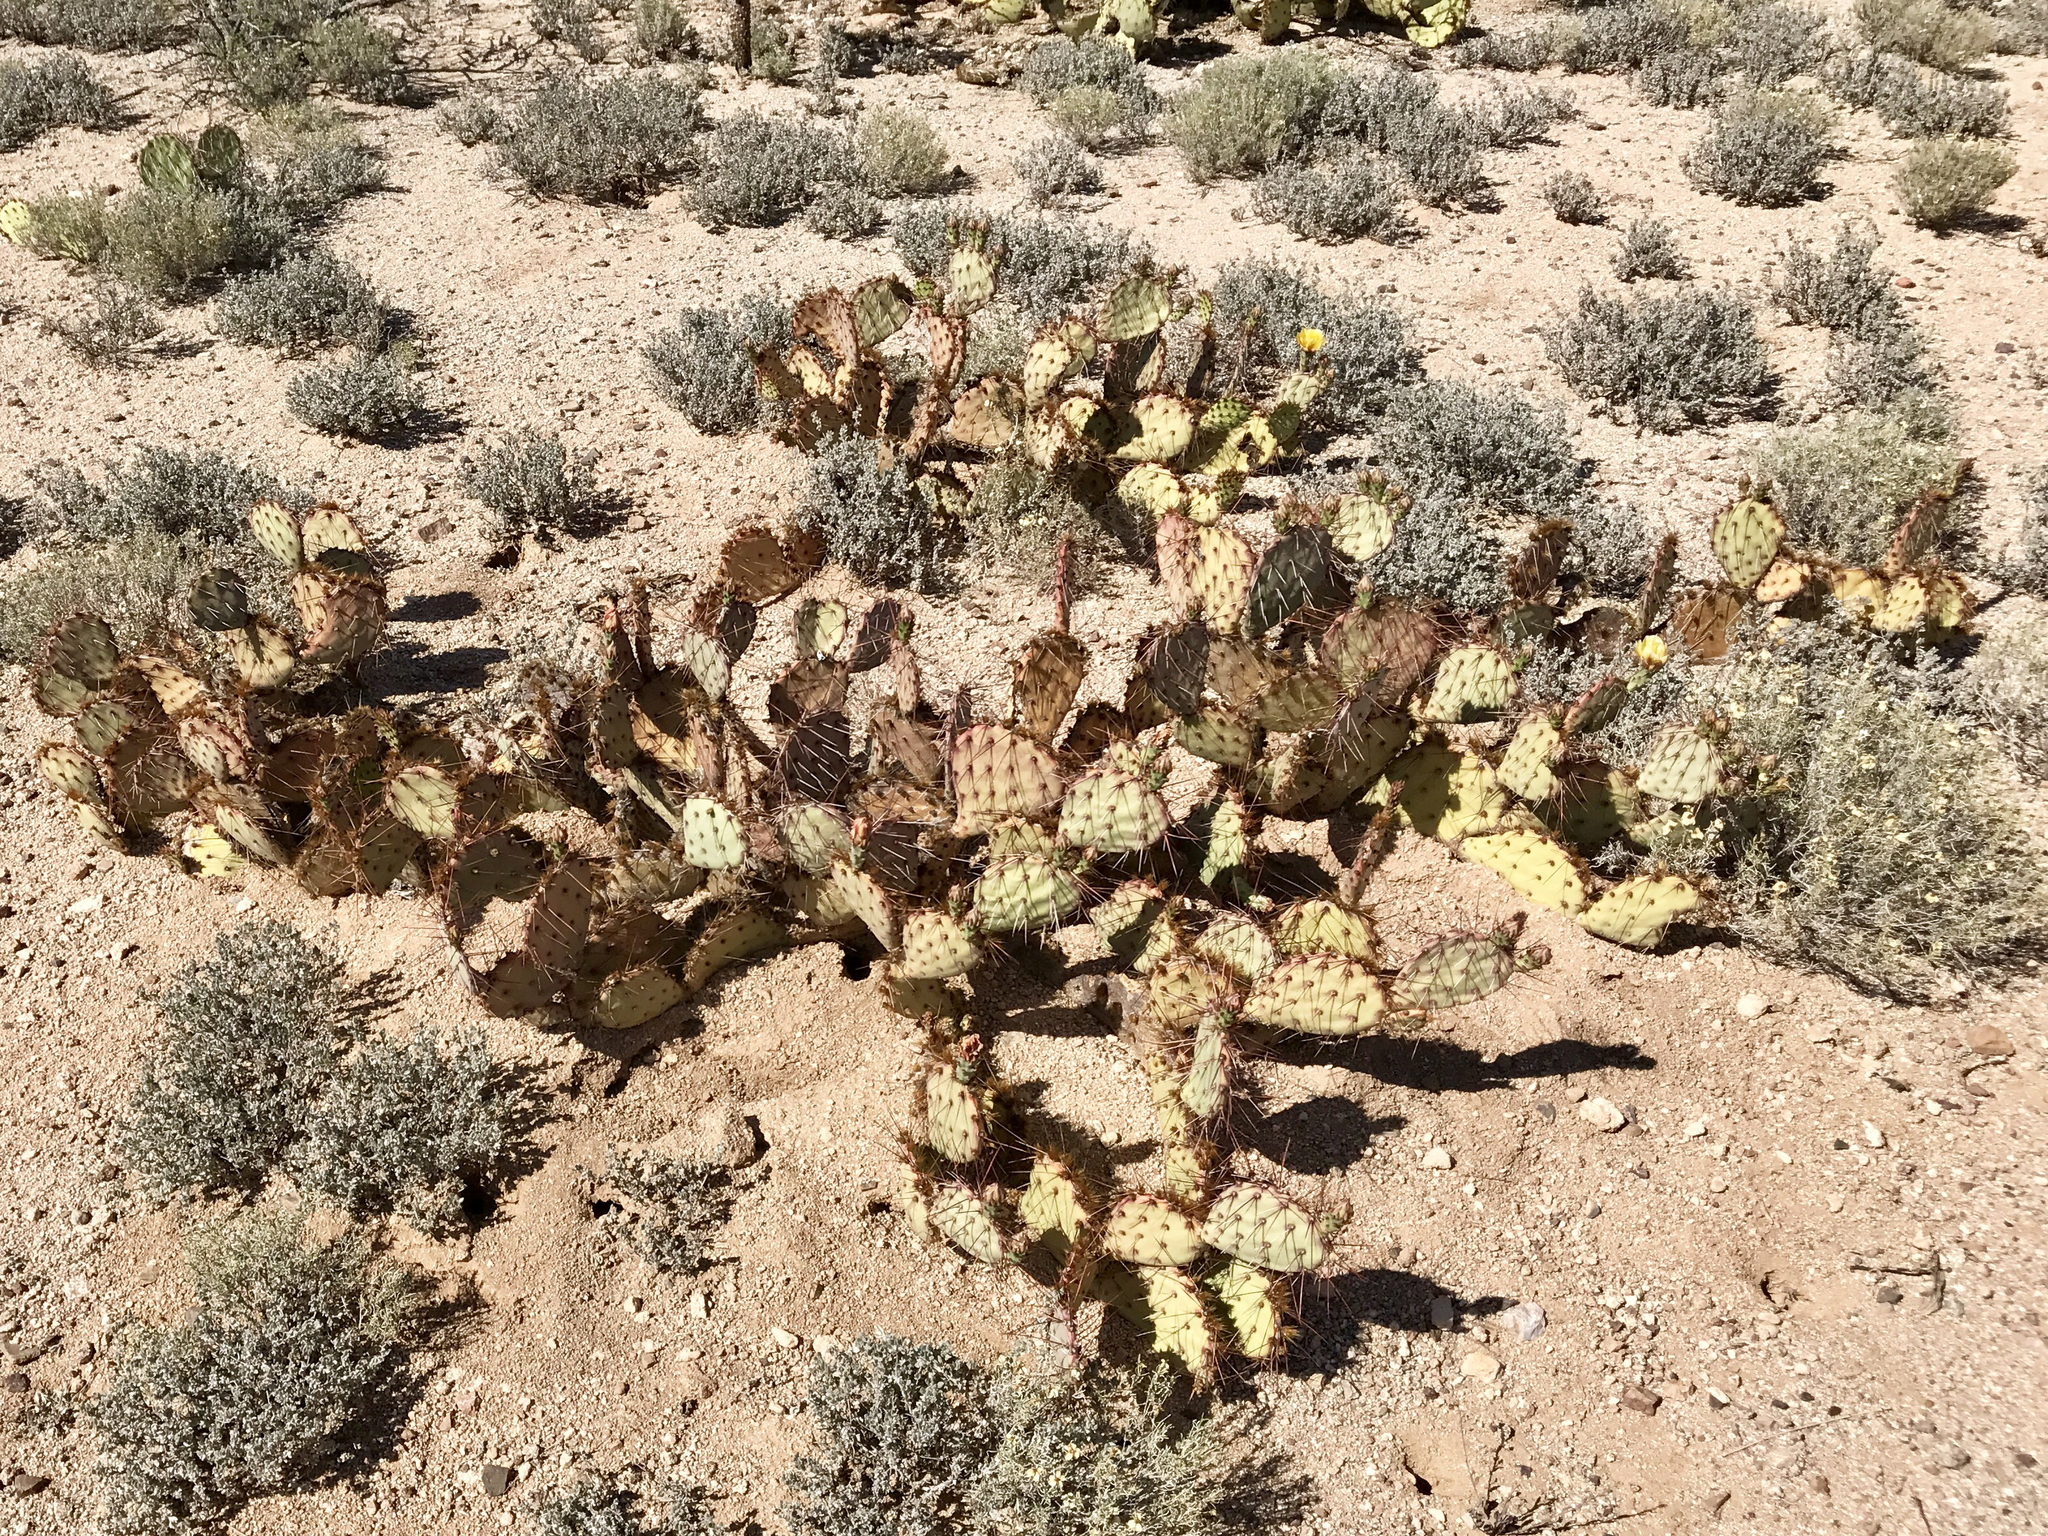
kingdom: Plantae
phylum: Tracheophyta
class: Magnoliopsida
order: Caryophyllales
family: Cactaceae
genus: Opuntia
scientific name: Opuntia phaeacantha
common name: New mexico prickly-pear
